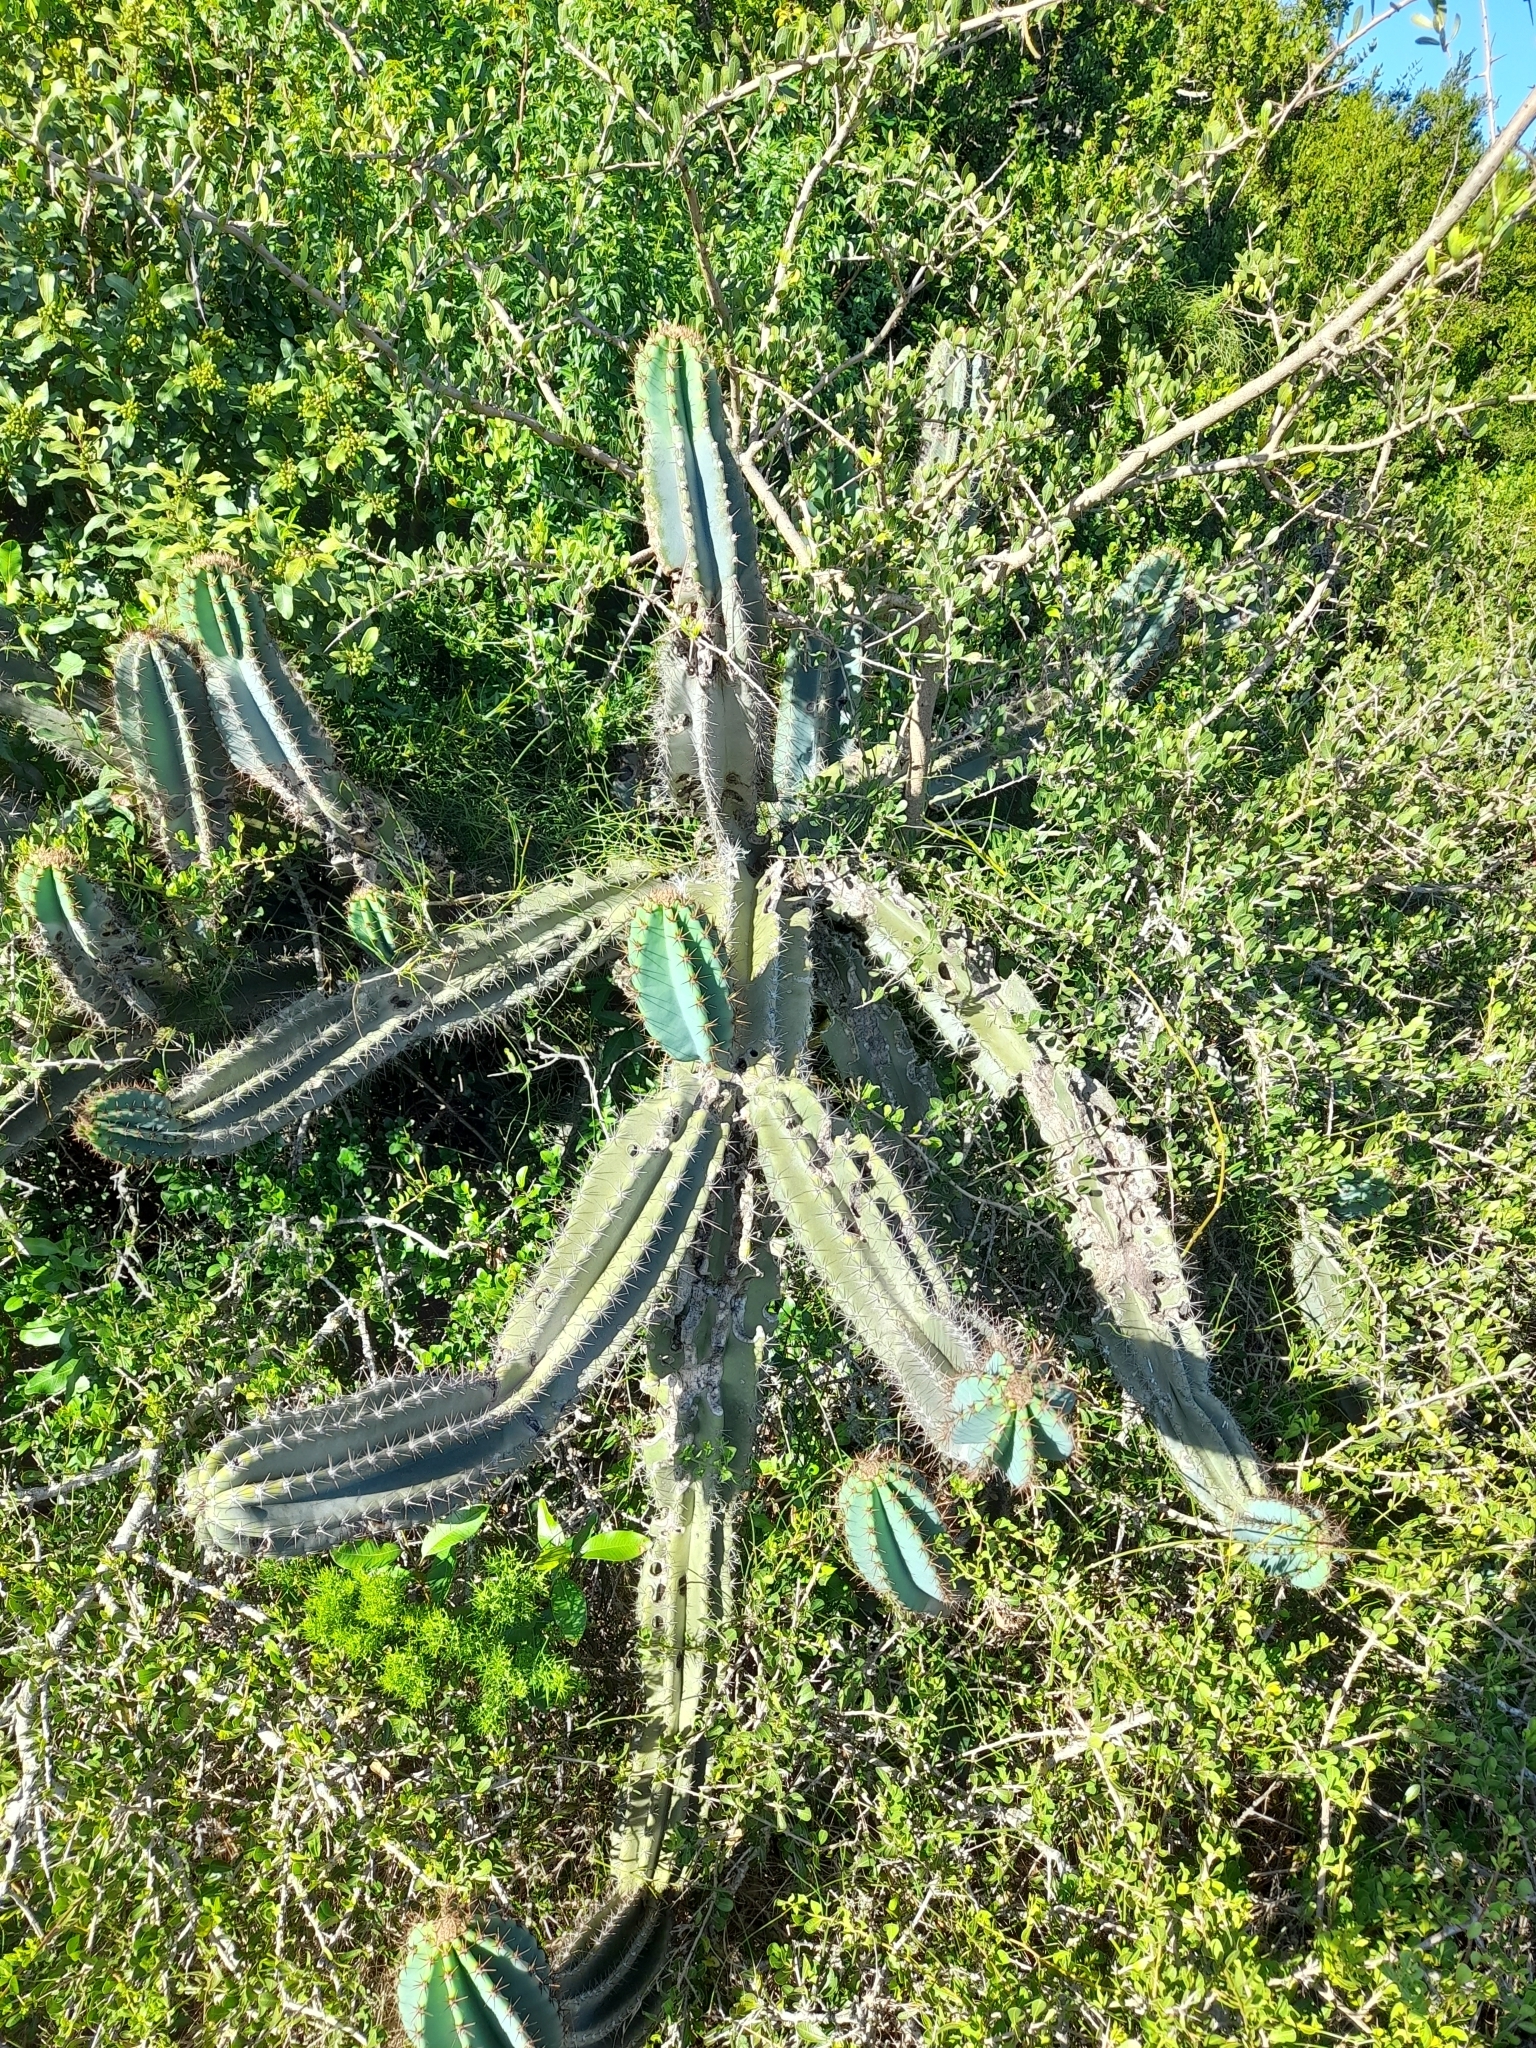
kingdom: Plantae
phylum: Tracheophyta
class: Magnoliopsida
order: Caryophyllales
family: Cactaceae
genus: Cereus
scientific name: Cereus hildmannianus
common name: Hedge cactus
